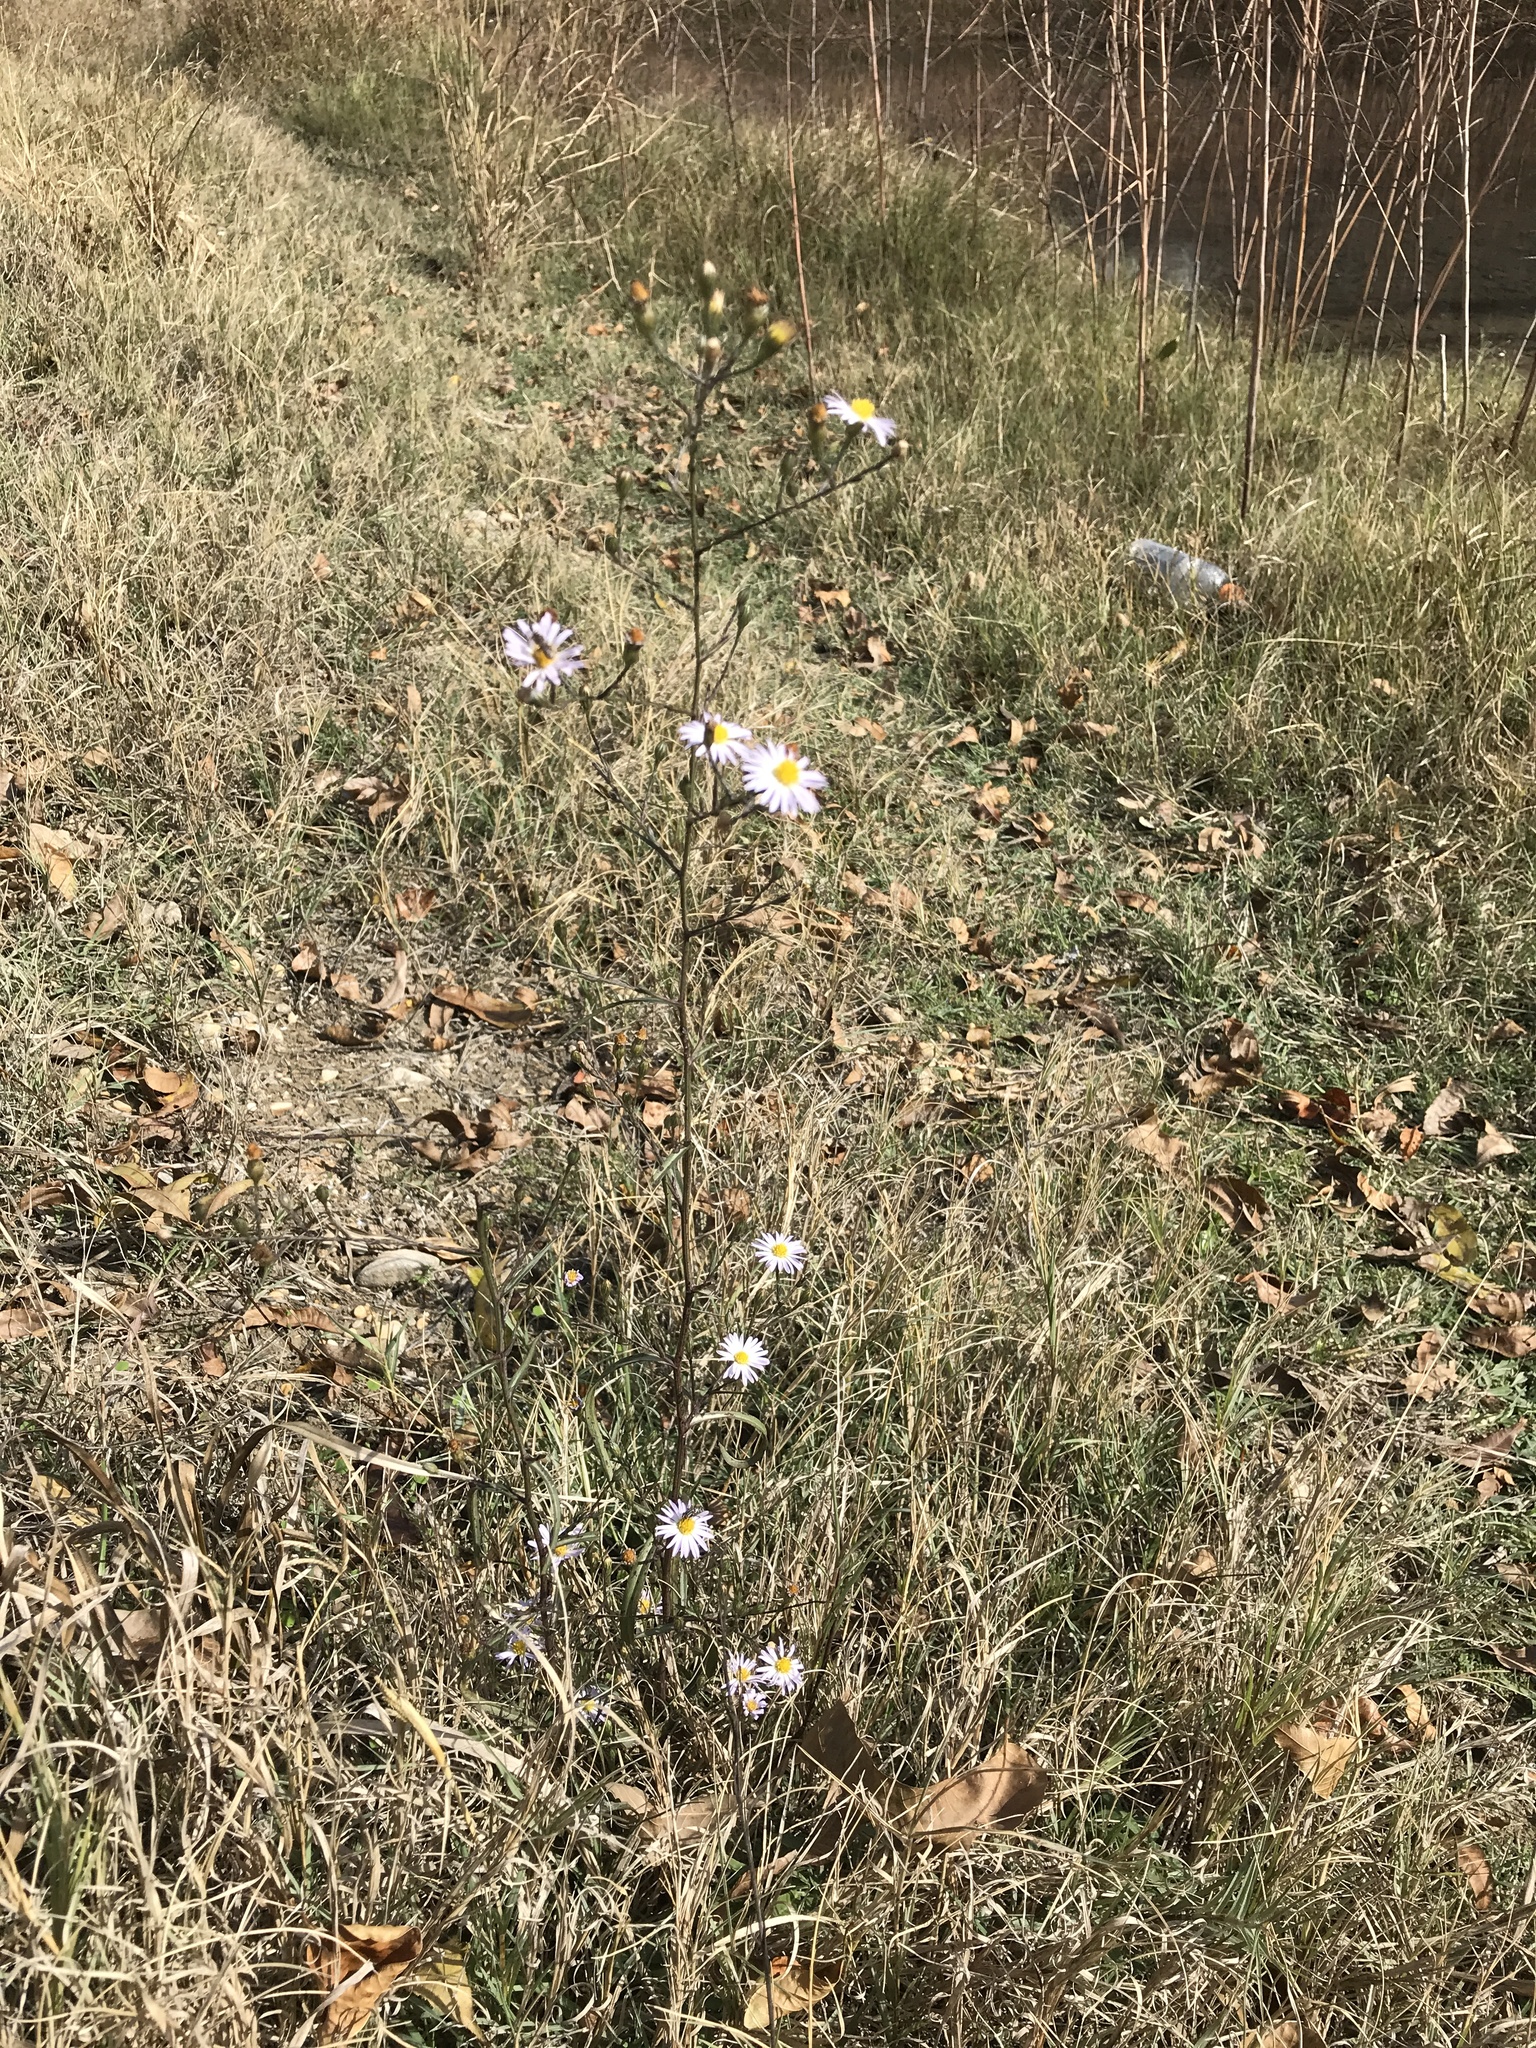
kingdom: Plantae
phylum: Tracheophyta
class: Magnoliopsida
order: Asterales
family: Asteraceae
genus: Symphyotrichum
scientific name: Symphyotrichum divaricatum
